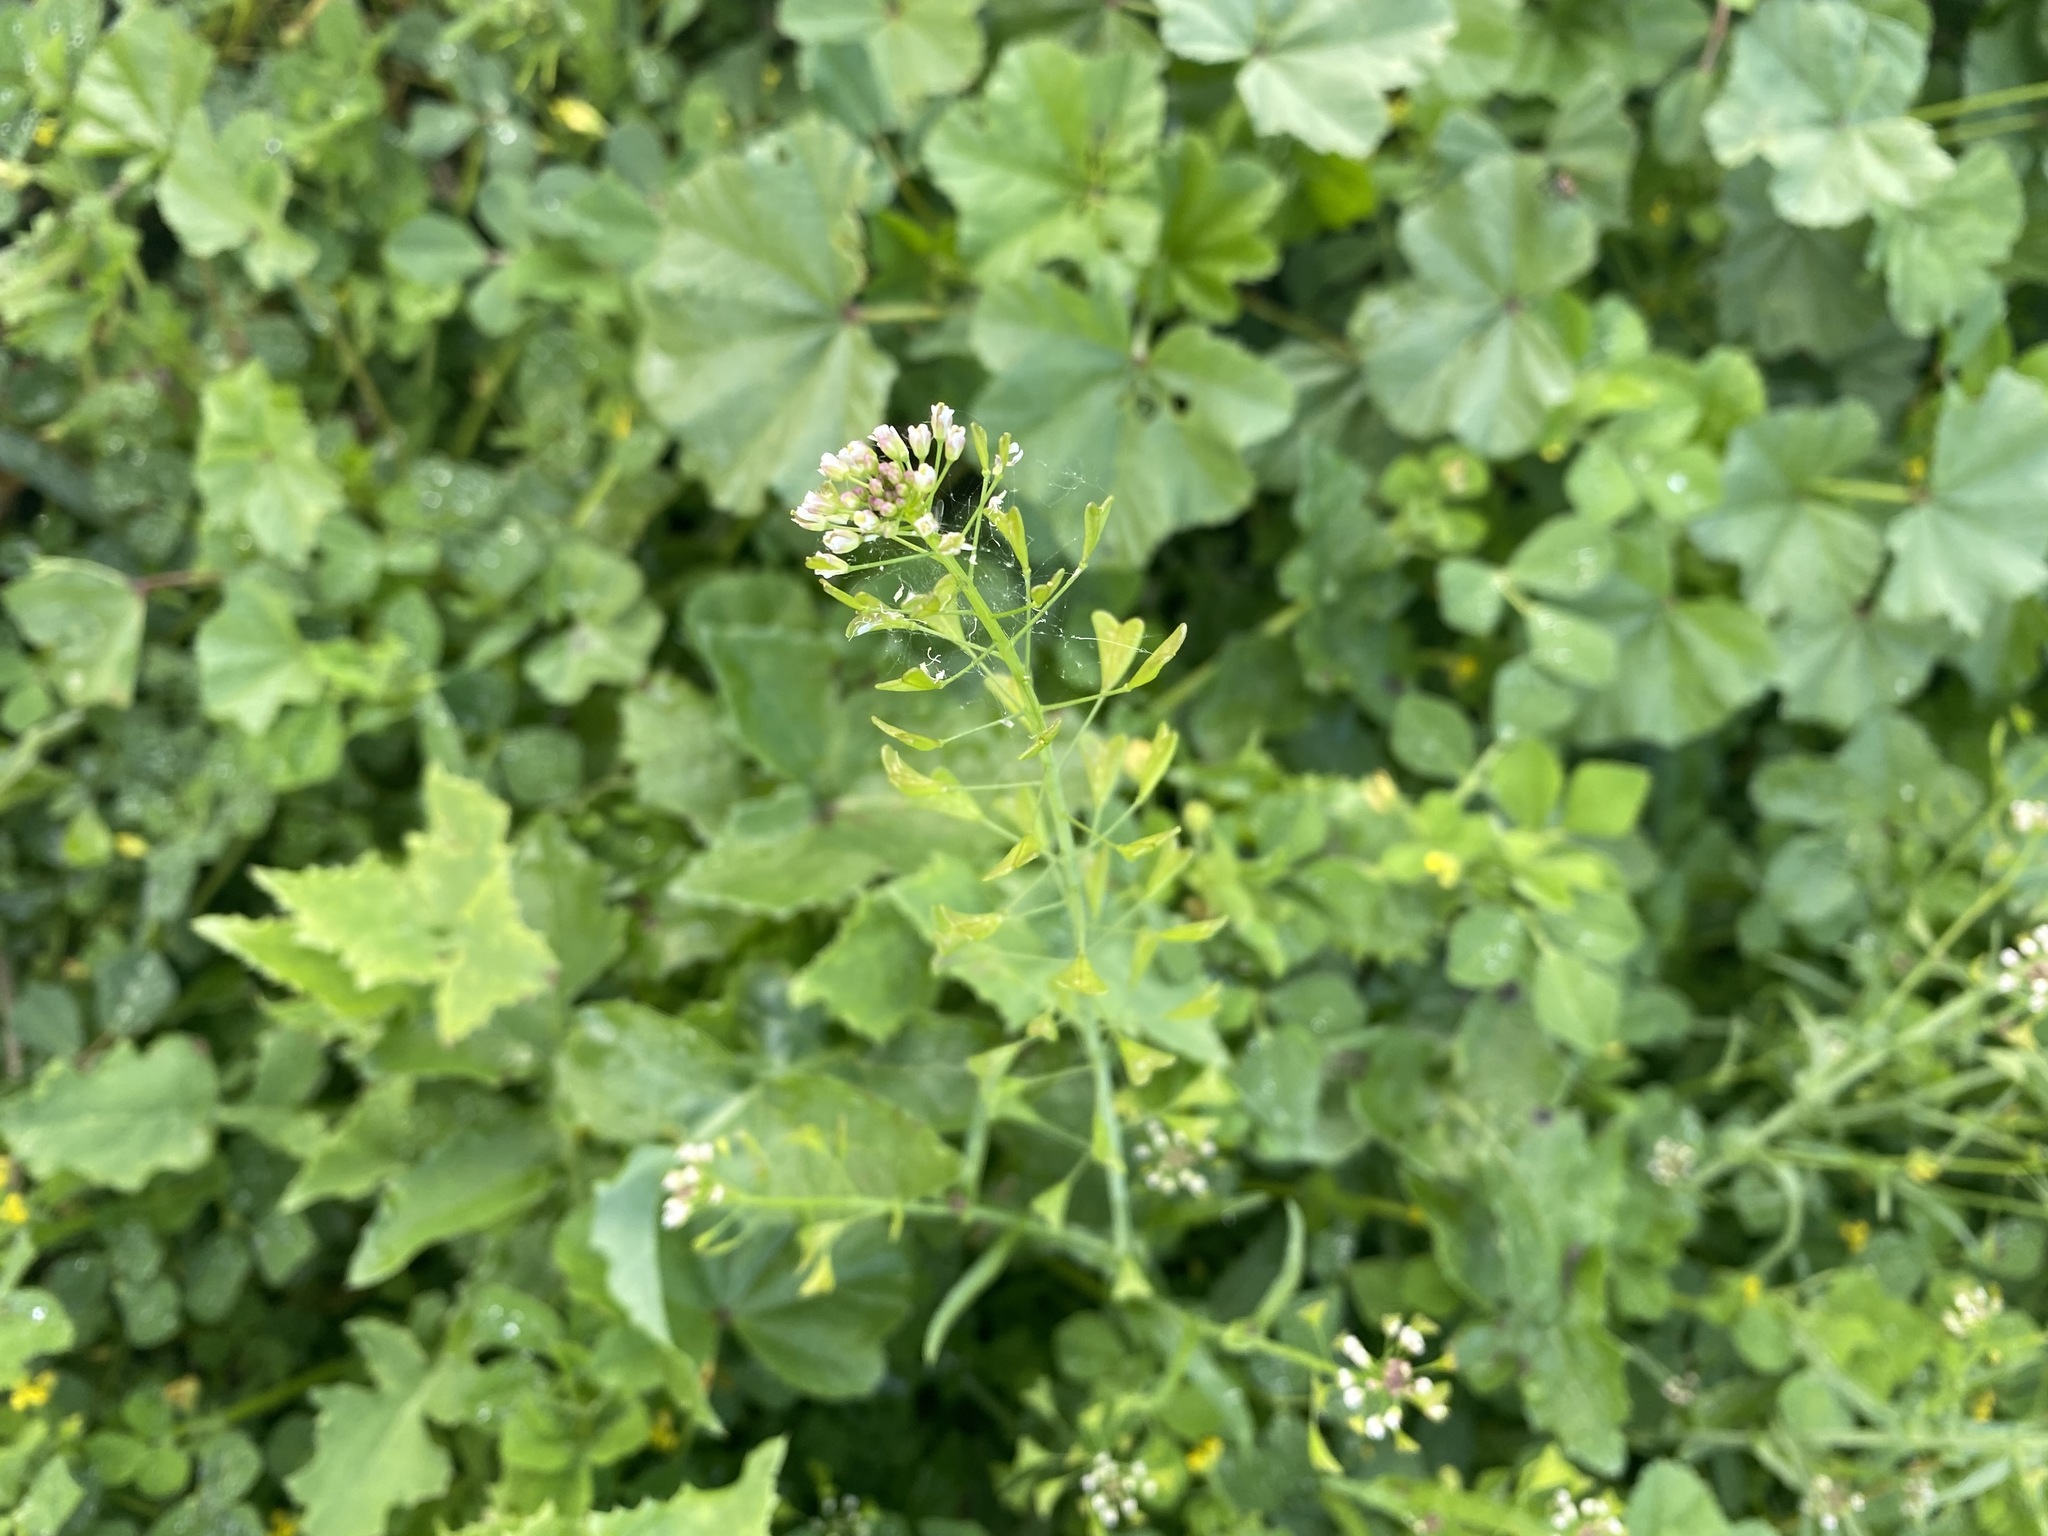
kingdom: Plantae
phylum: Tracheophyta
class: Magnoliopsida
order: Brassicales
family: Brassicaceae
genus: Capsella
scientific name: Capsella bursa-pastoris
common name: Shepherd's purse
